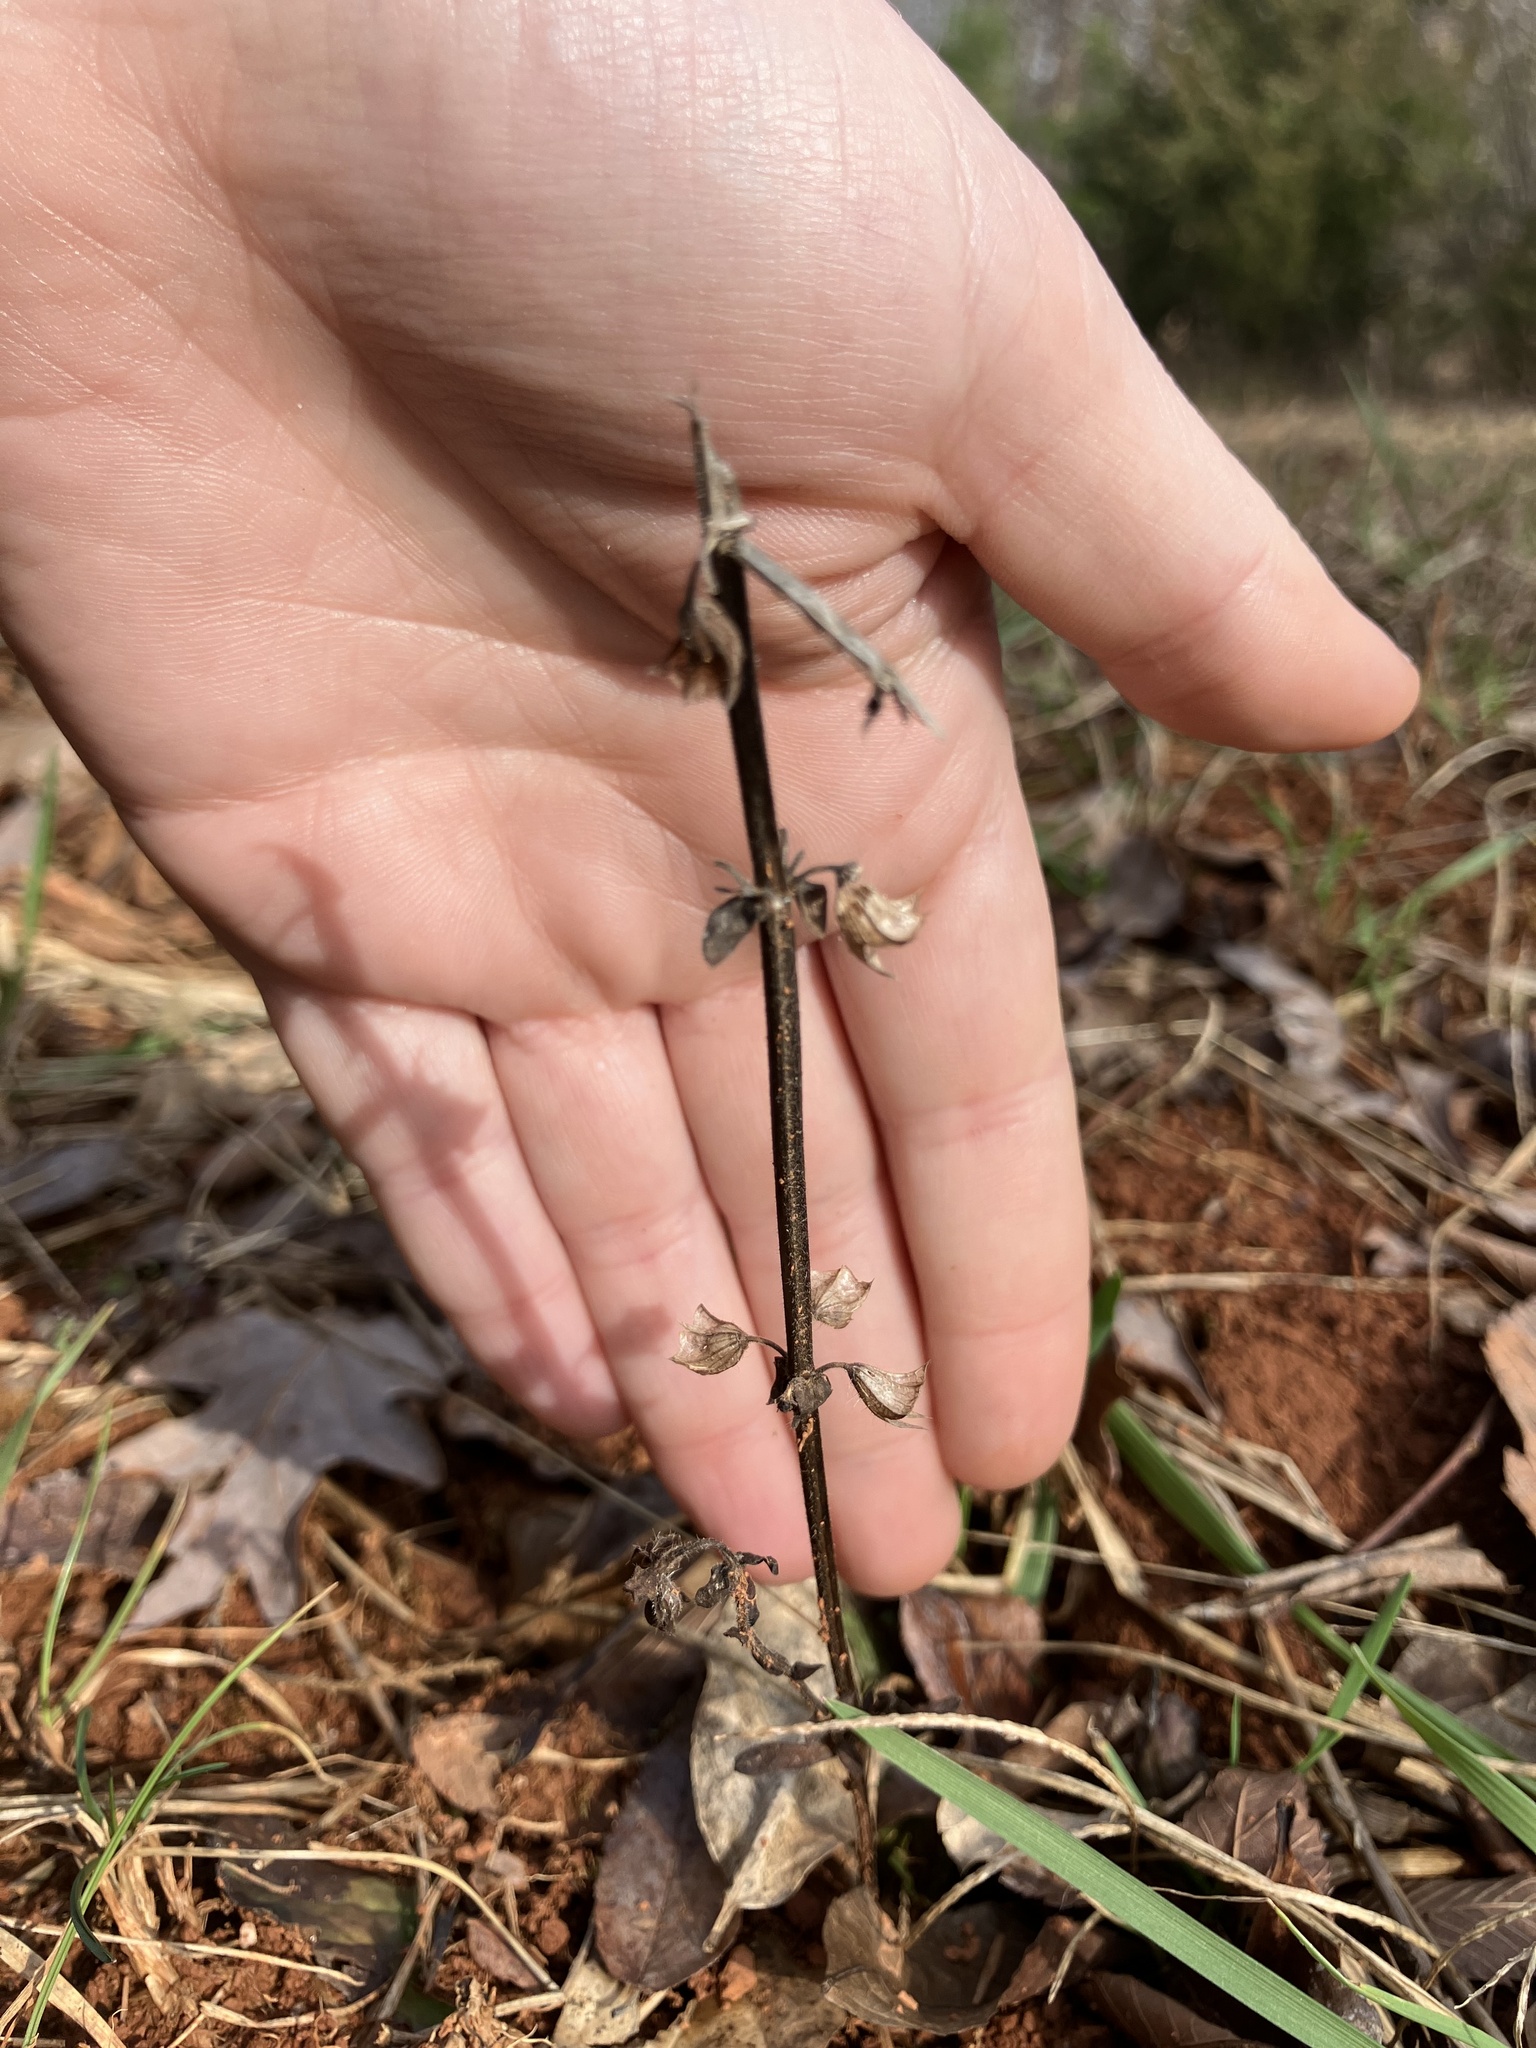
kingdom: Plantae
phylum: Tracheophyta
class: Magnoliopsida
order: Lamiales
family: Lamiaceae
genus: Salvia
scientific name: Salvia lyrata
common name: Cancerweed
